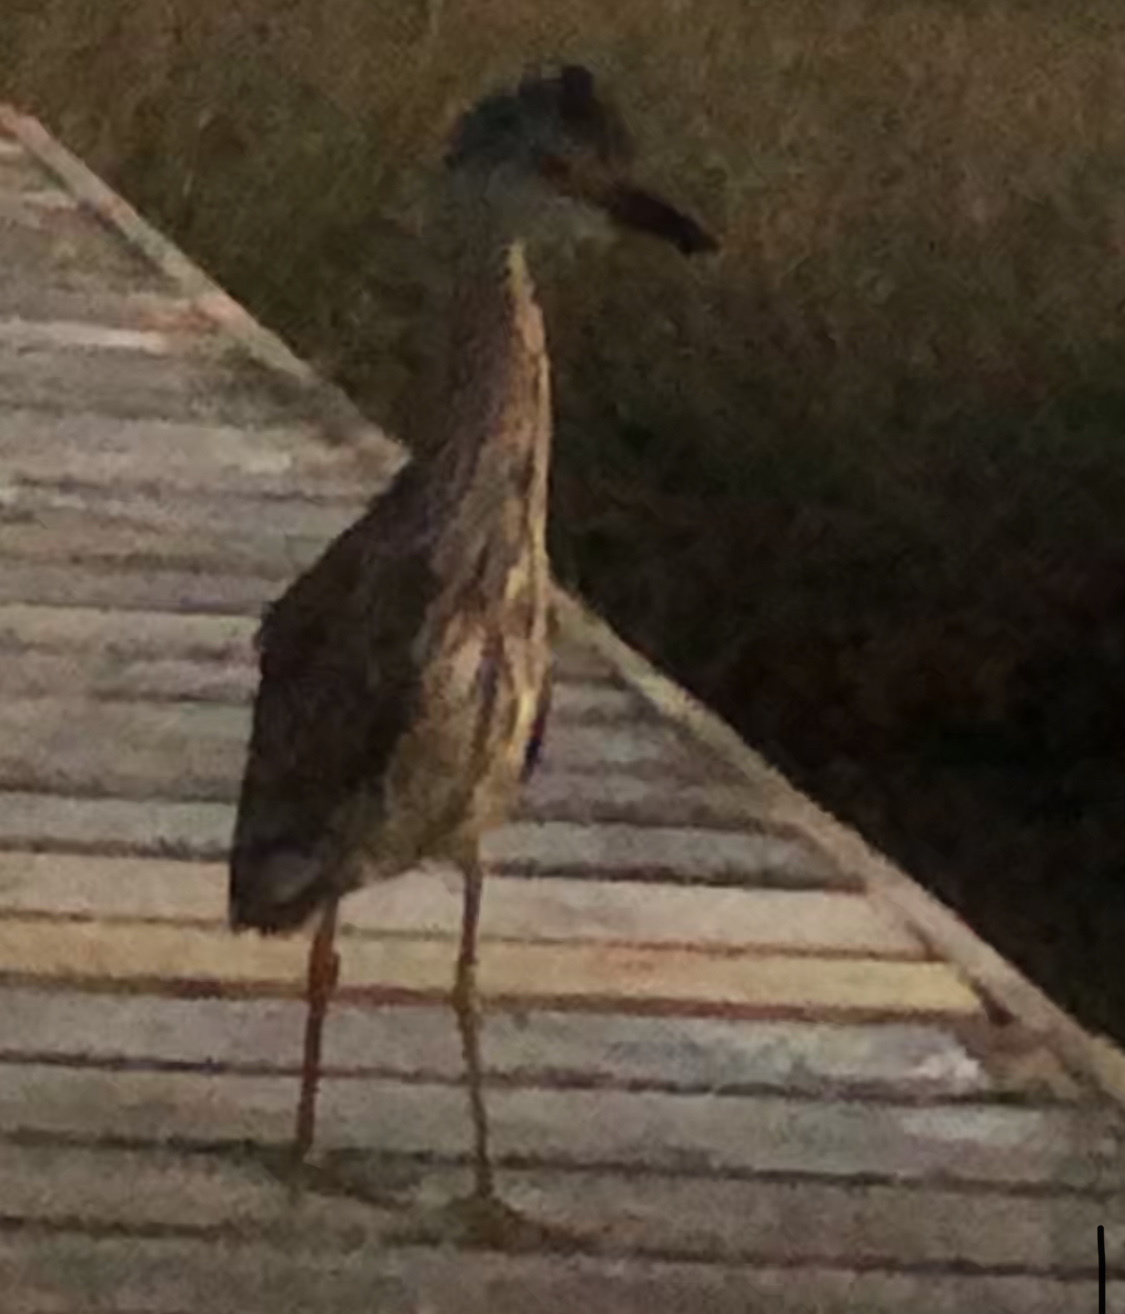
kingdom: Animalia
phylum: Chordata
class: Aves
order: Pelecaniformes
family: Ardeidae
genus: Nyctanassa
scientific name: Nyctanassa violacea
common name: Yellow-crowned night heron
